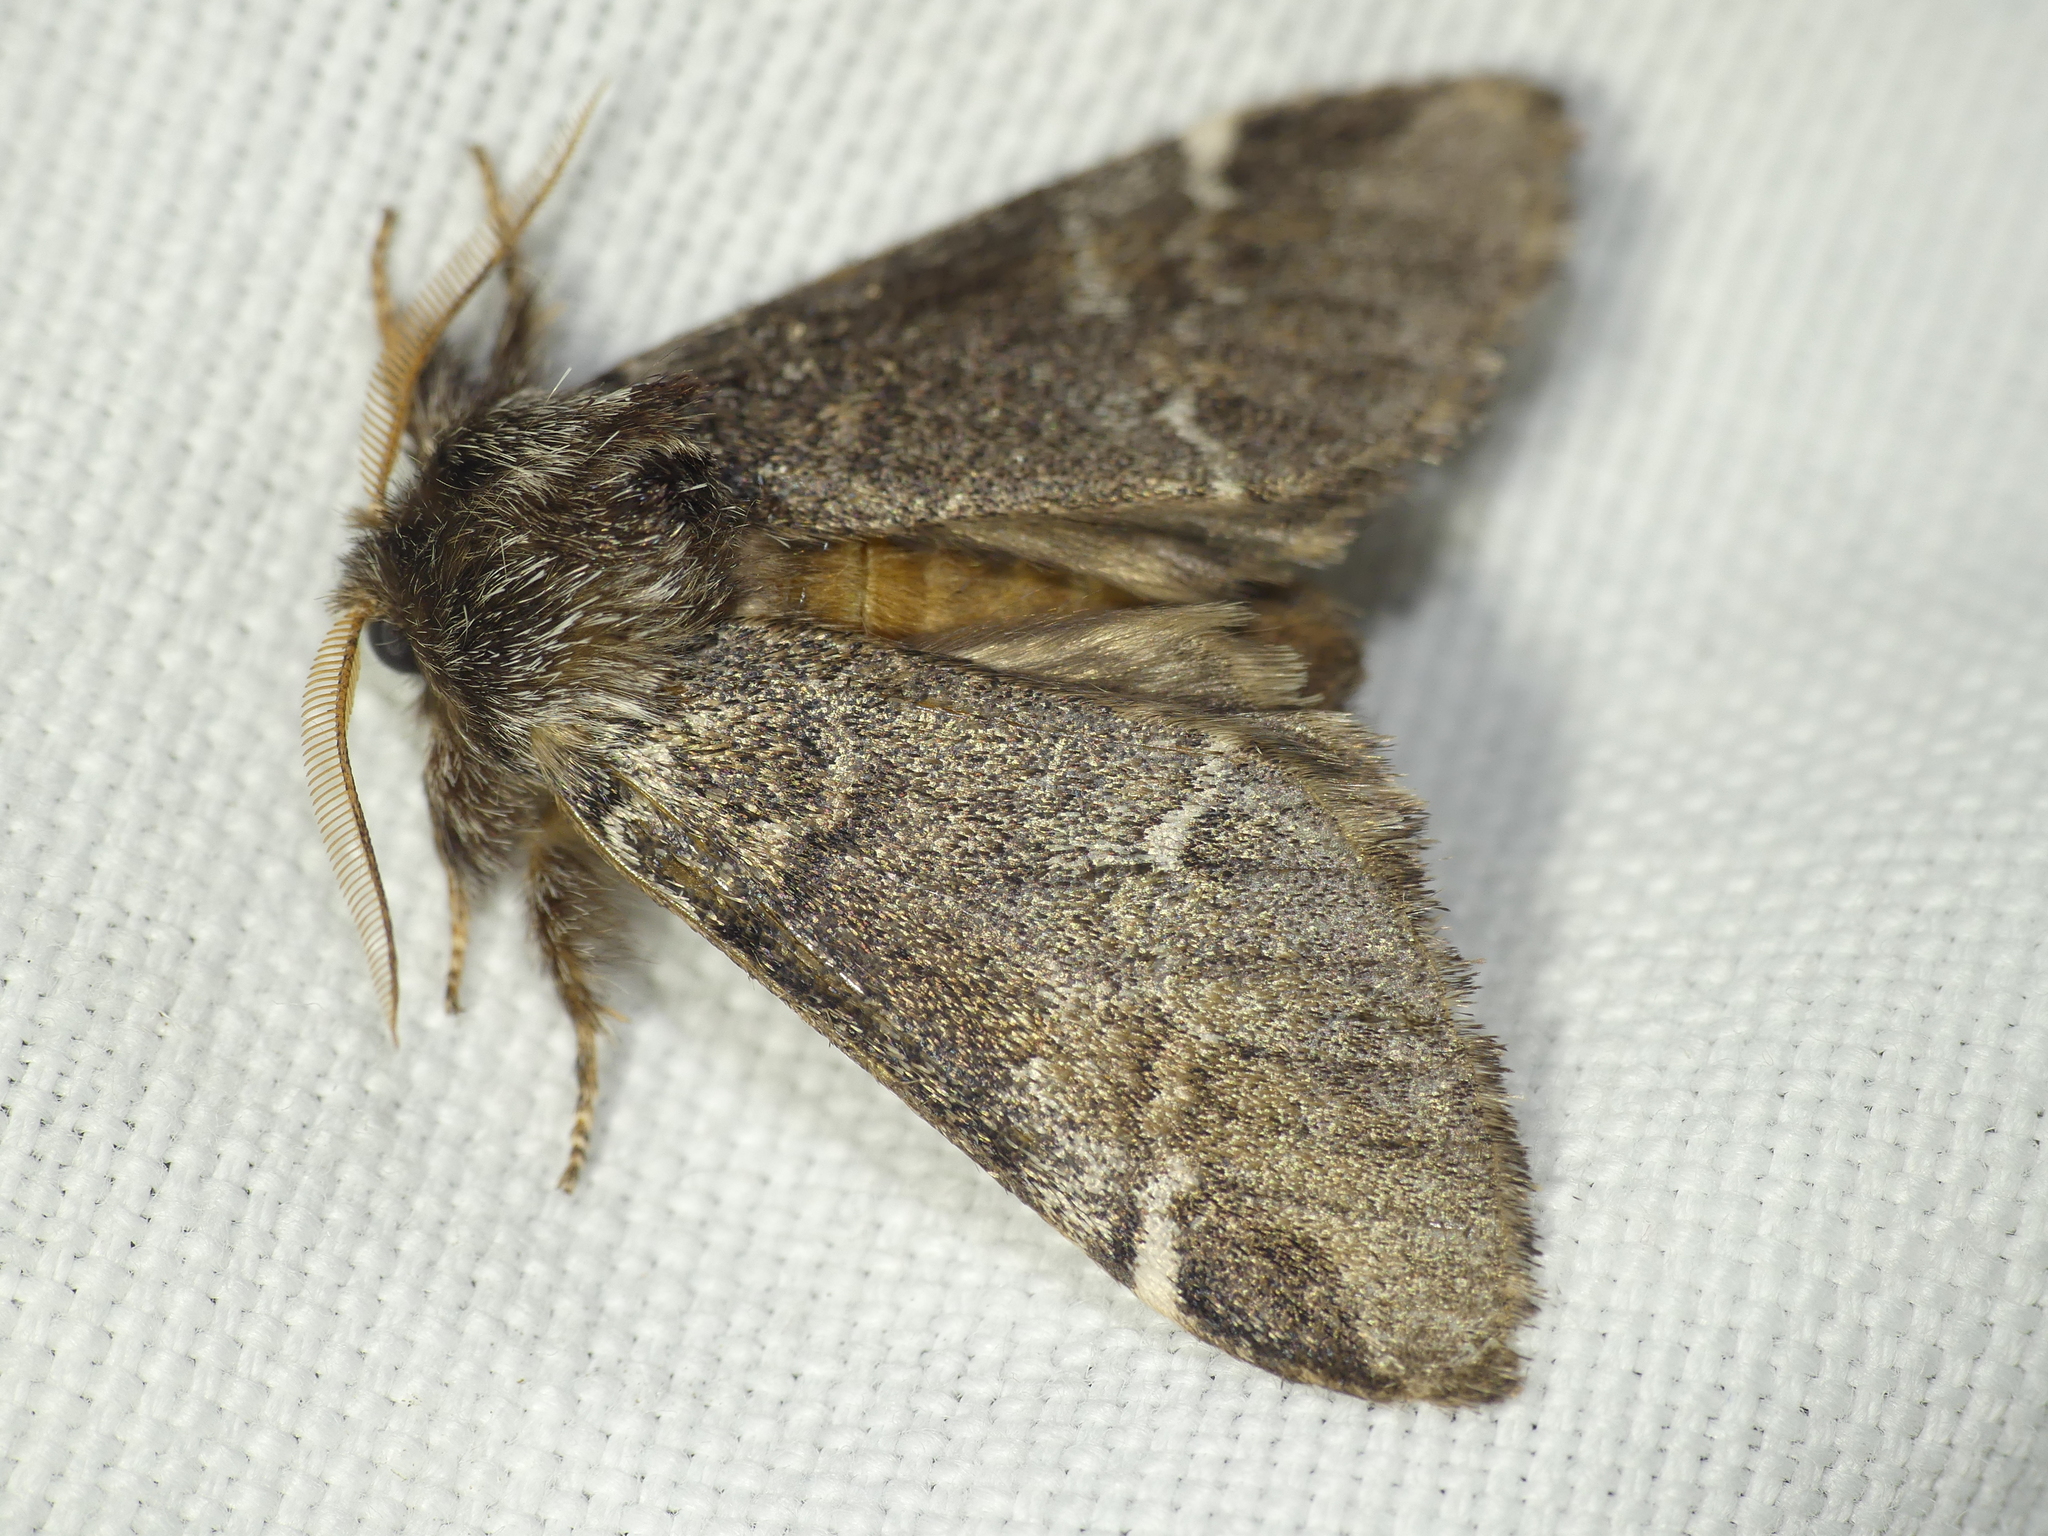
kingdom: Animalia
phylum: Arthropoda
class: Insecta
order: Lepidoptera
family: Notodontidae
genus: Drymonia
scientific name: Drymonia dodonaea
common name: Marbled brown
